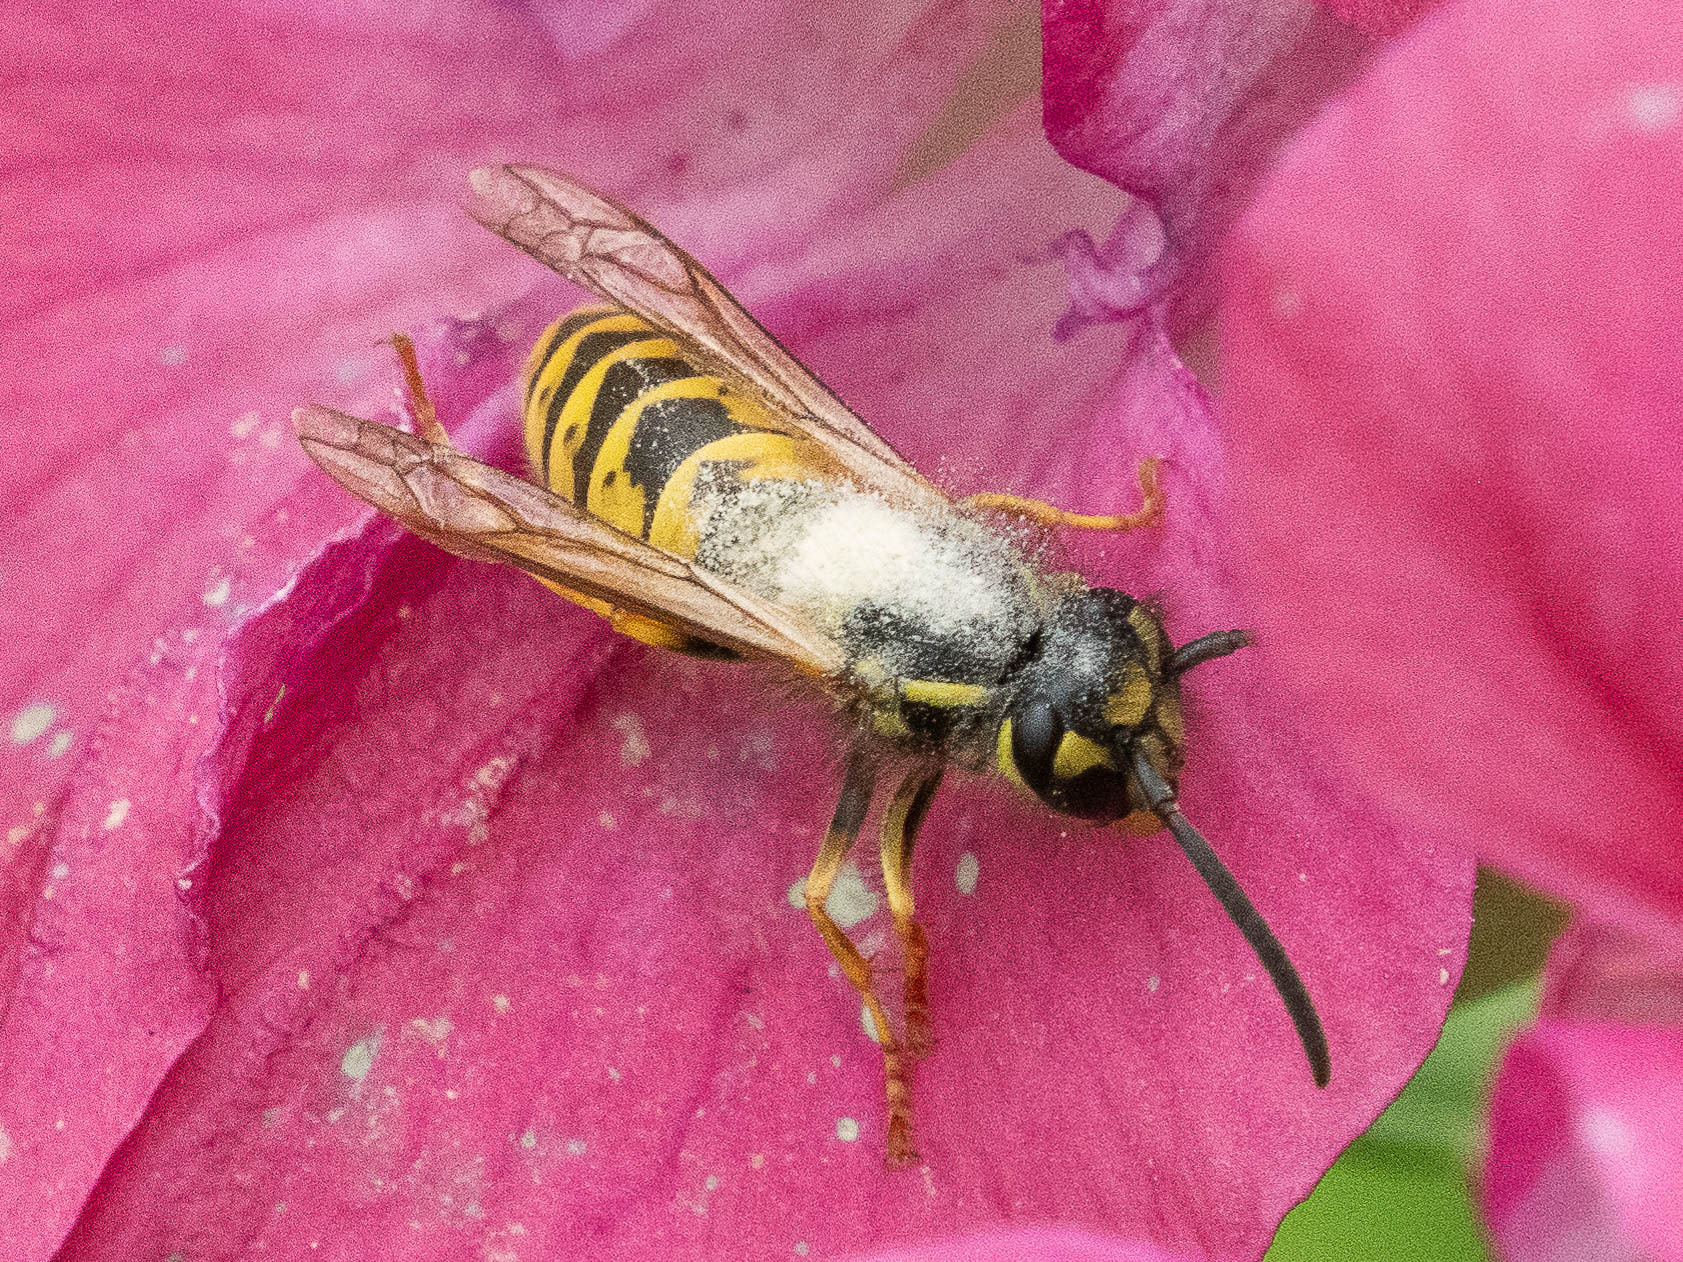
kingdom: Animalia
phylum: Arthropoda
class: Insecta
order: Hymenoptera
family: Vespidae
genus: Vespula
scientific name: Vespula vulgaris
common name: Common wasp
